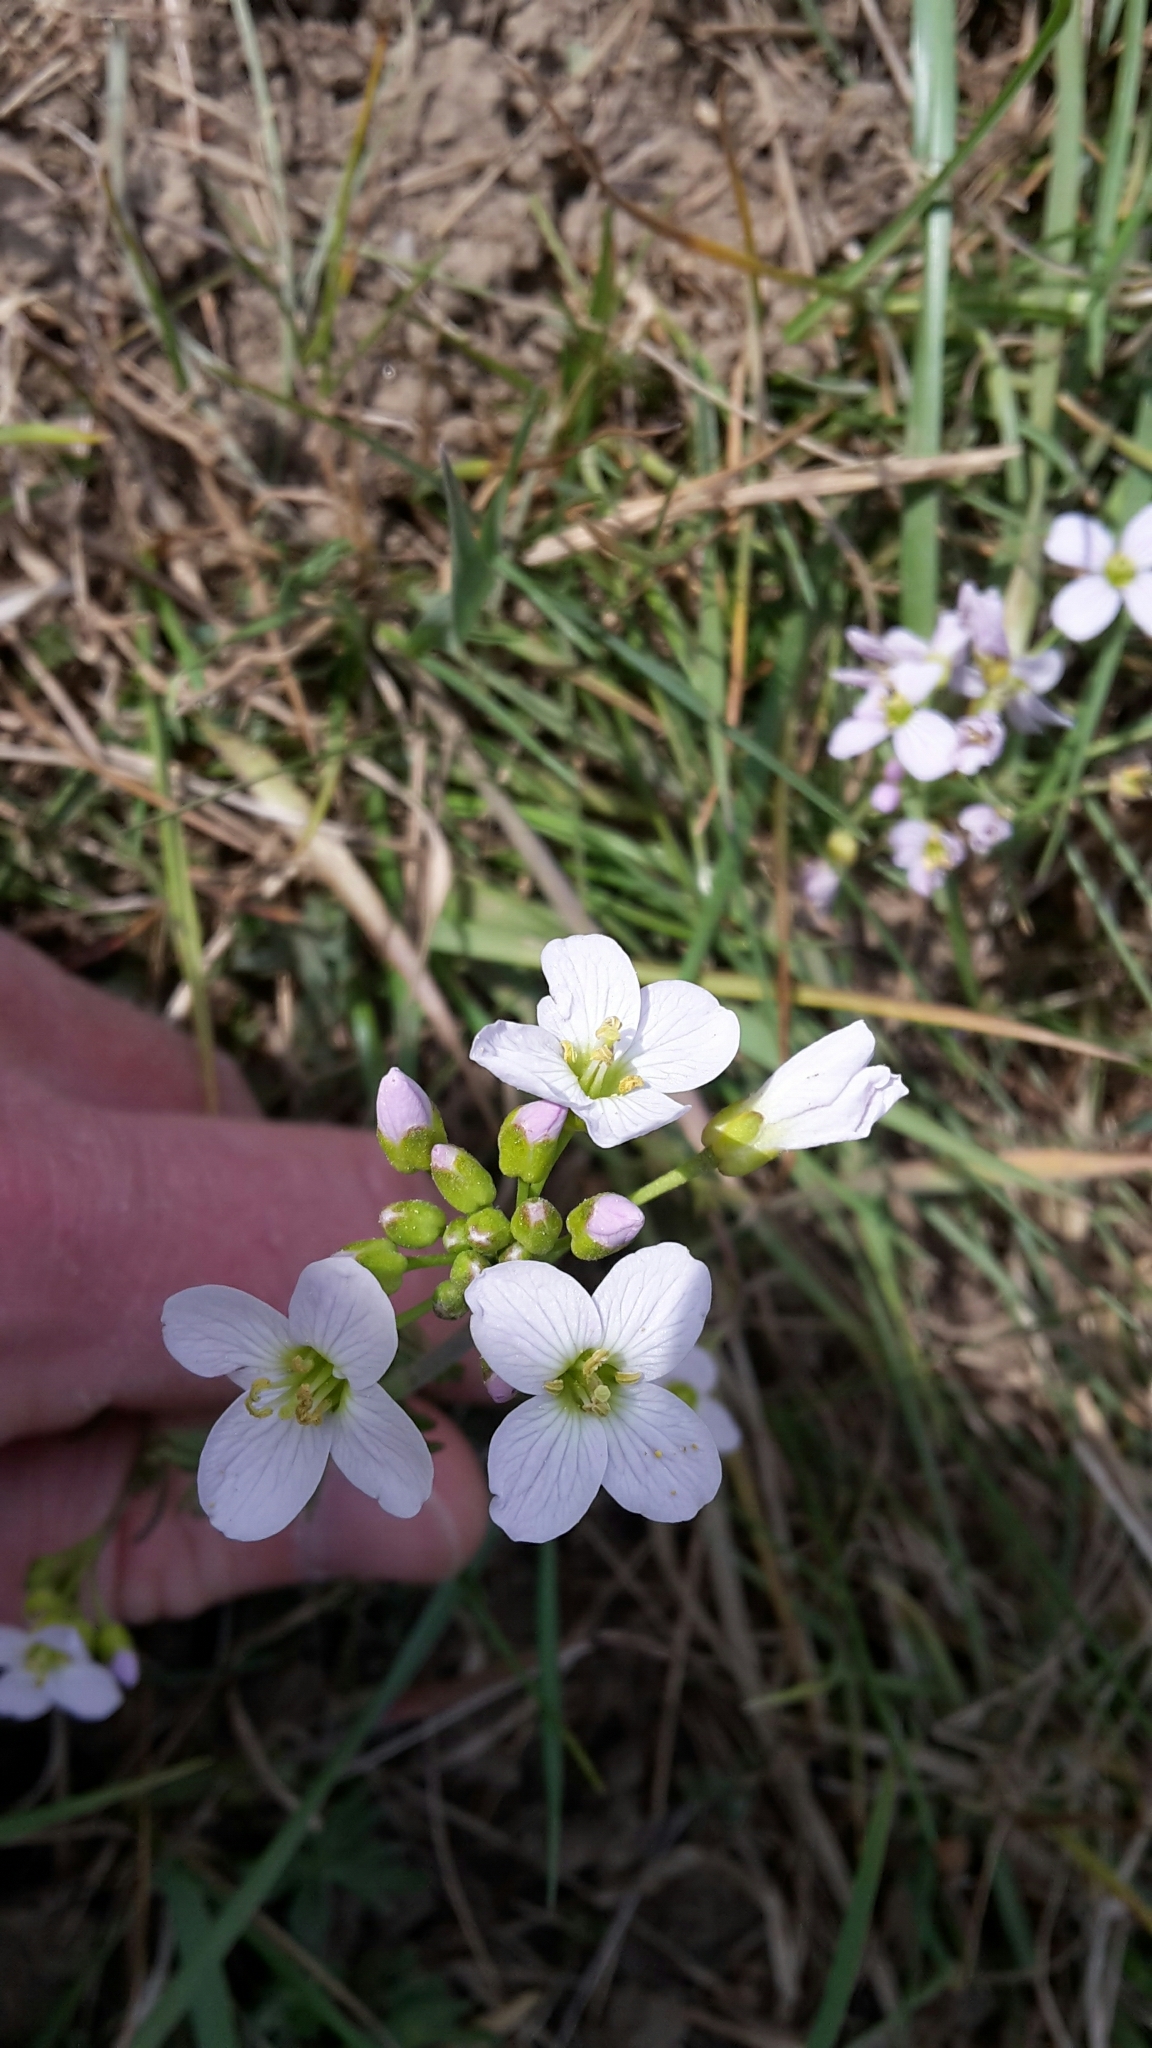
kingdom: Plantae
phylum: Tracheophyta
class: Magnoliopsida
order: Brassicales
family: Brassicaceae
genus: Cardamine
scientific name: Cardamine pratensis
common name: Cuckoo flower
